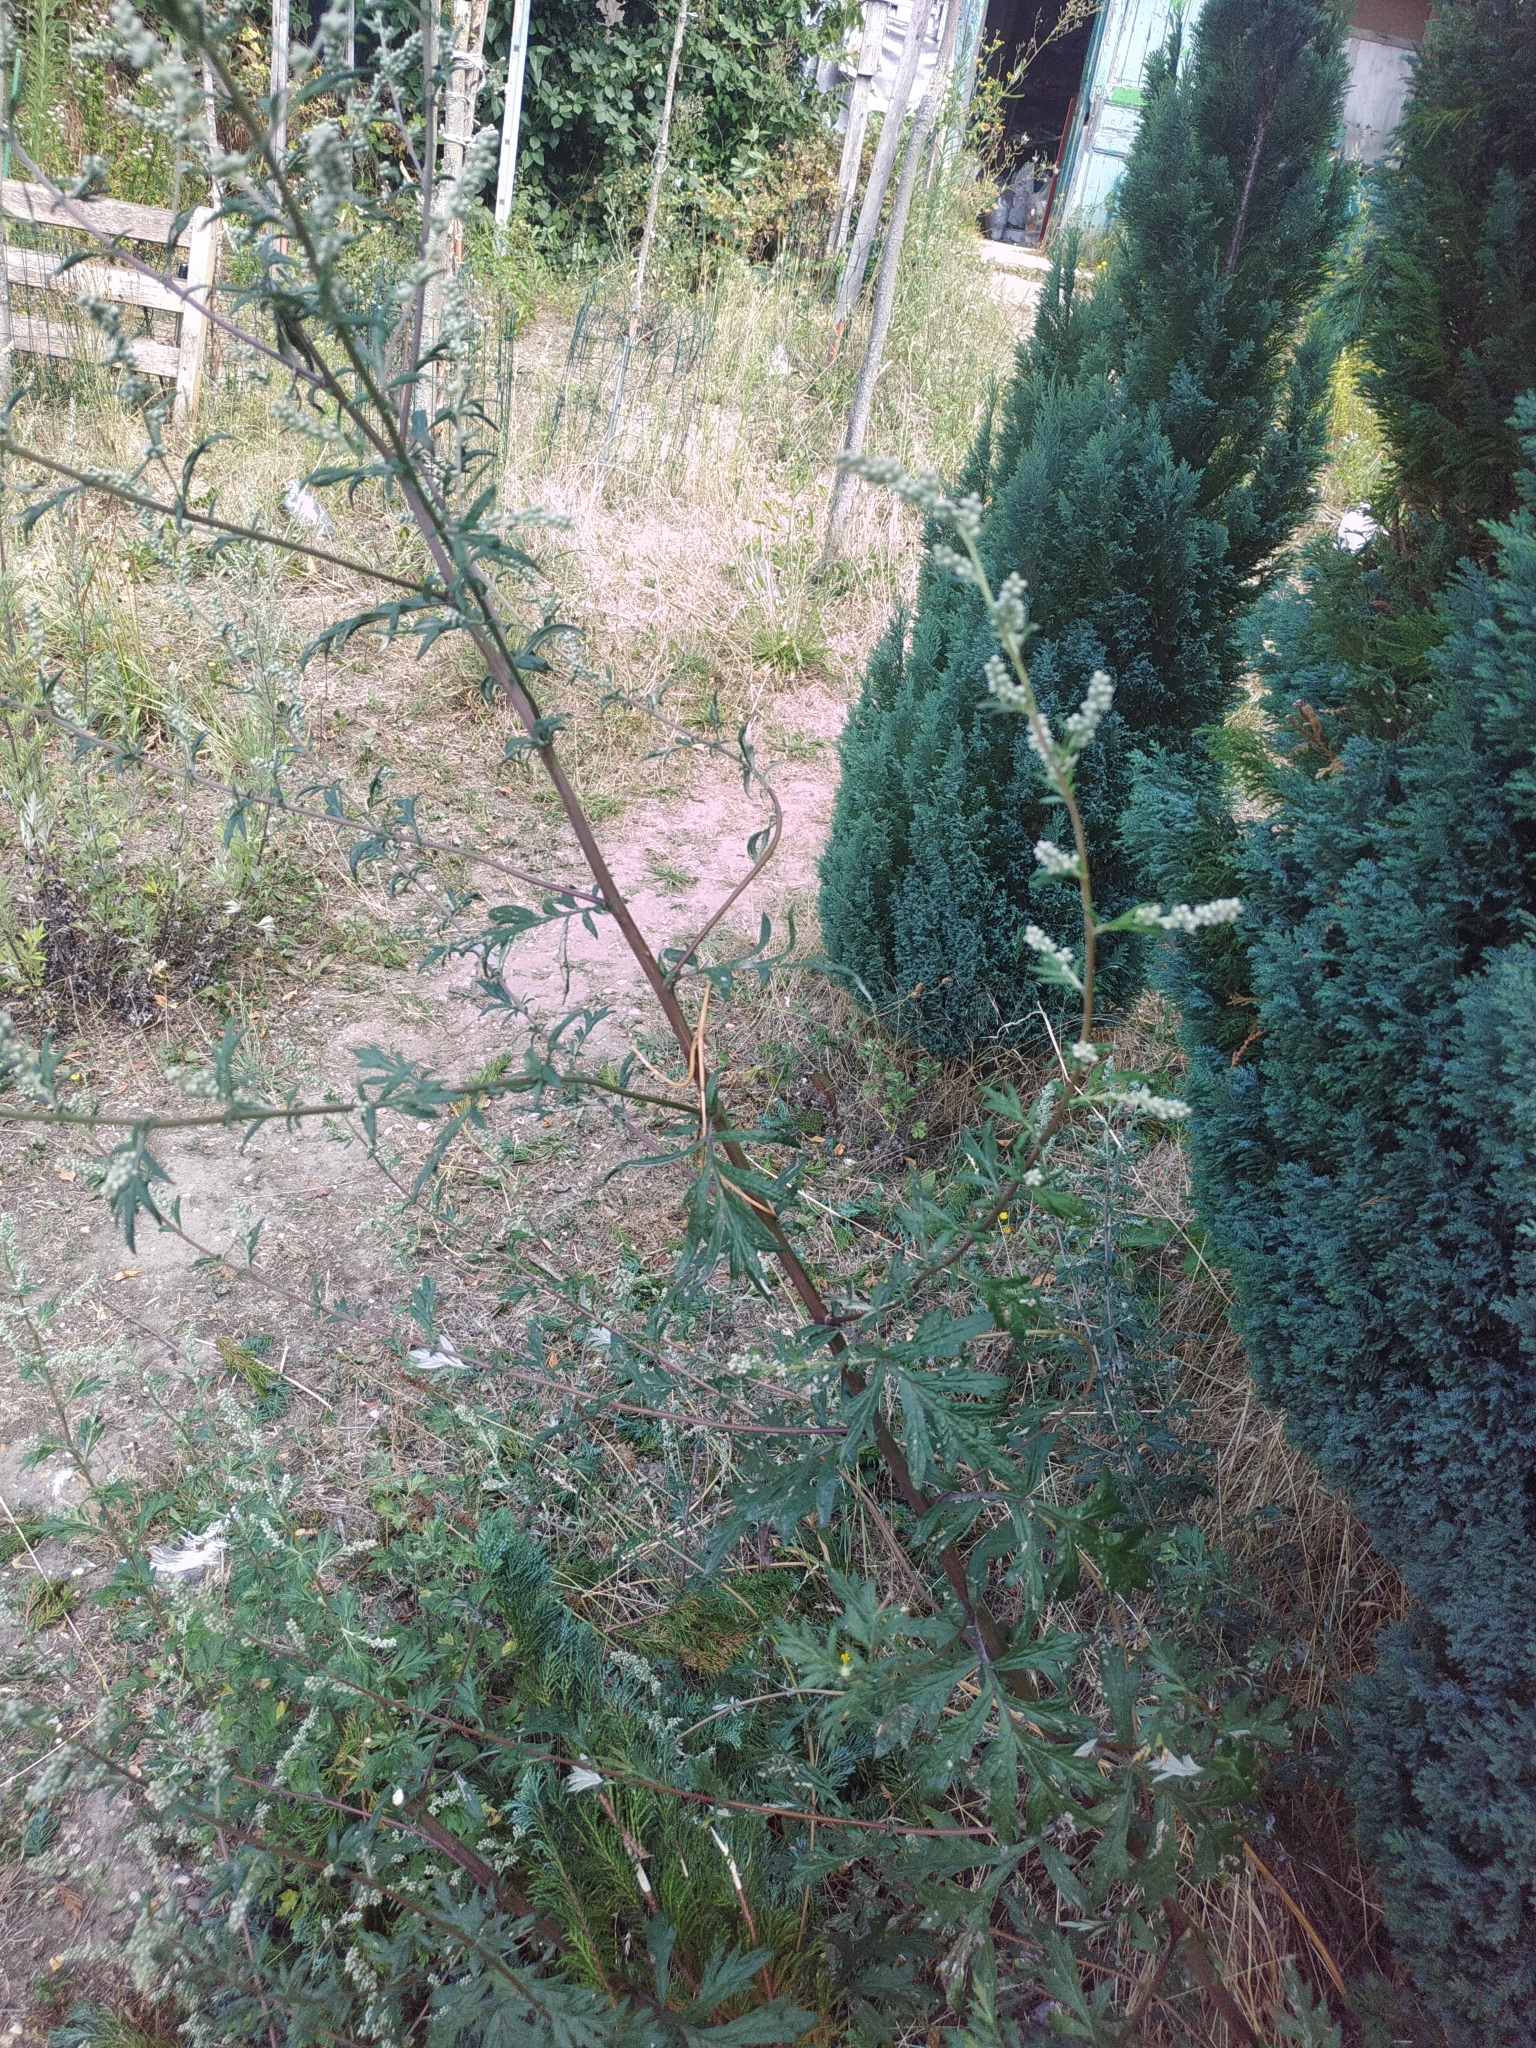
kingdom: Plantae
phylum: Tracheophyta
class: Magnoliopsida
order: Asterales
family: Asteraceae
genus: Artemisia
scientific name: Artemisia vulgaris
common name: Mugwort
